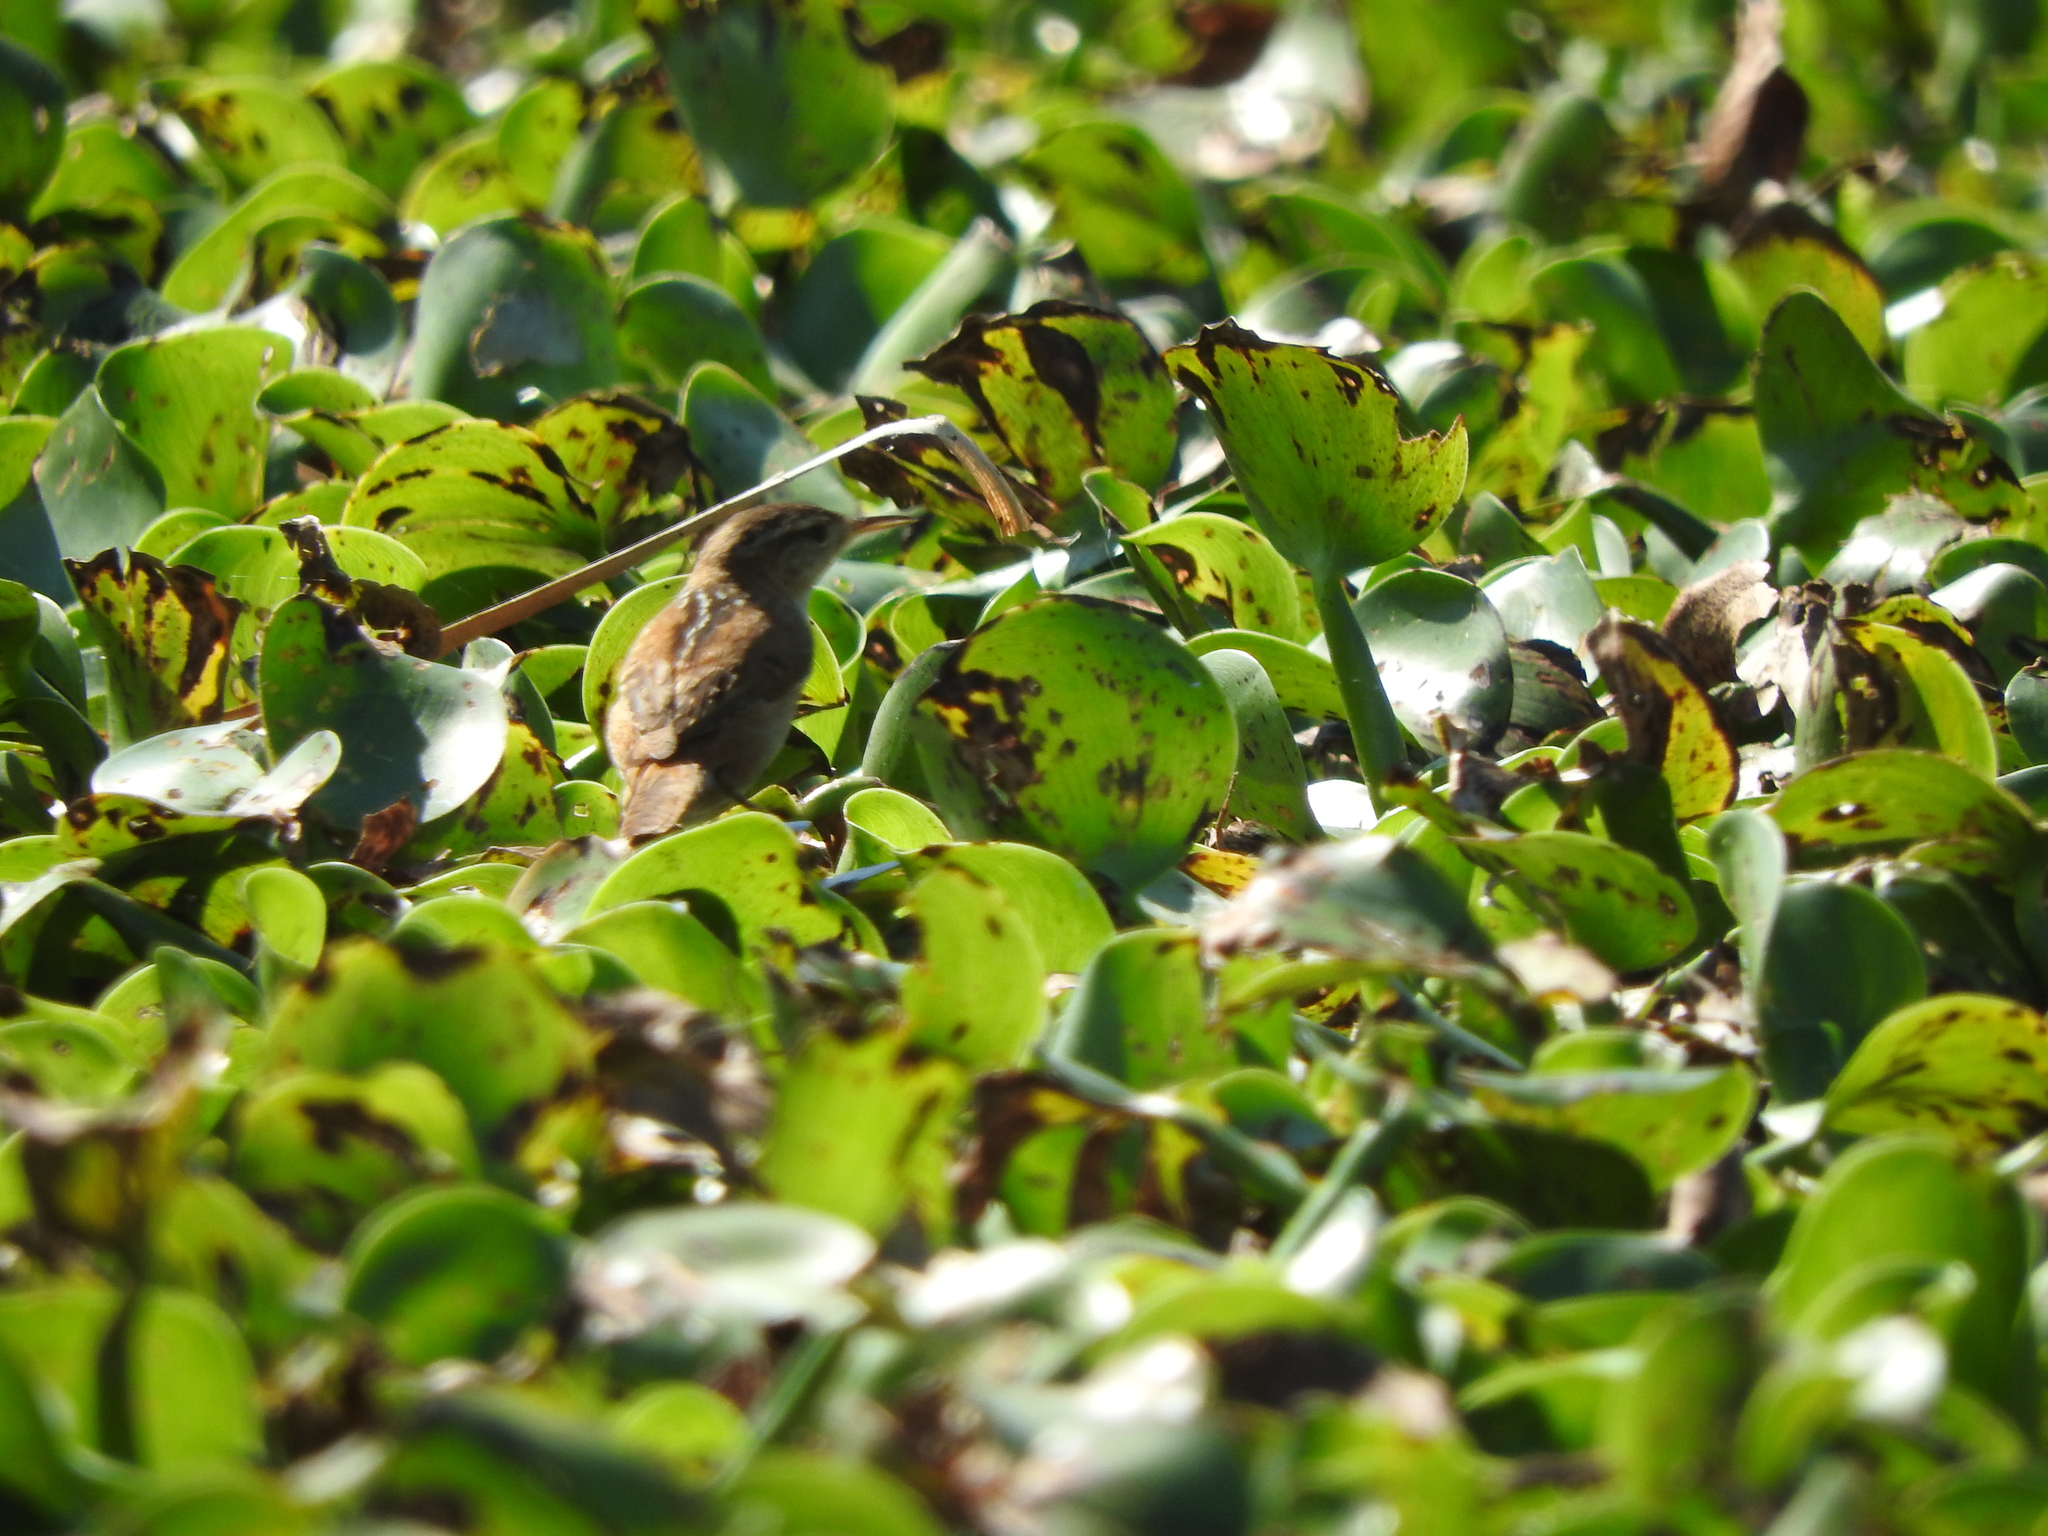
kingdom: Animalia
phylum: Chordata
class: Aves
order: Passeriformes
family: Troglodytidae
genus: Cistothorus
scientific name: Cistothorus palustris
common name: Marsh wren
